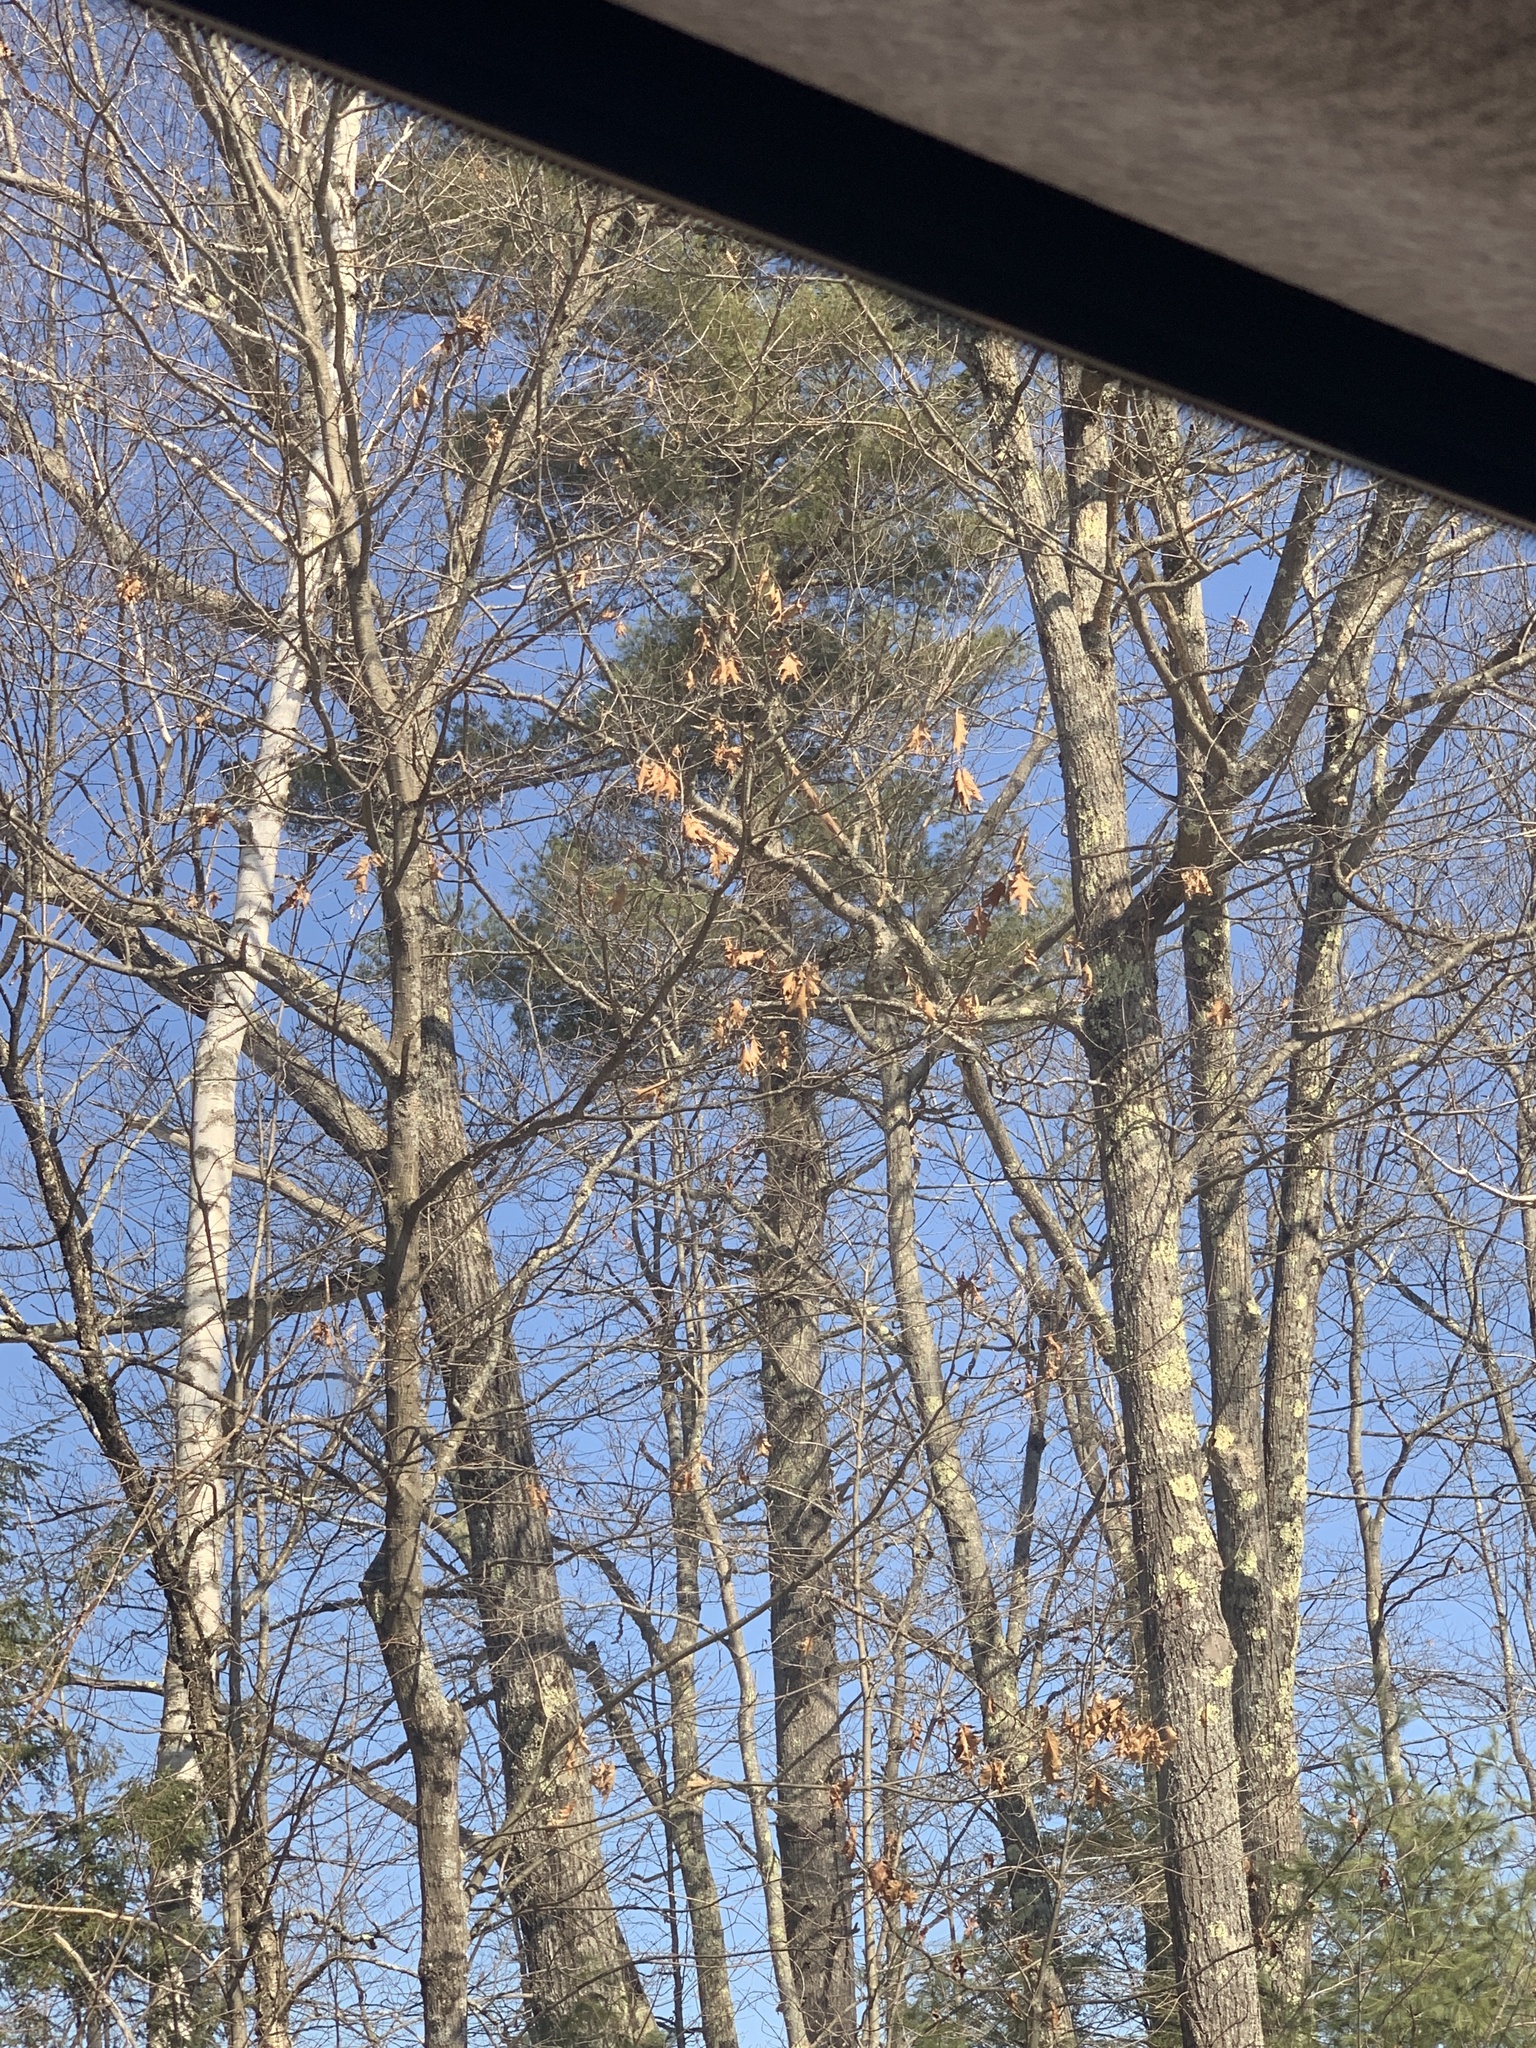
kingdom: Plantae
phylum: Tracheophyta
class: Pinopsida
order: Pinales
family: Pinaceae
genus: Pinus
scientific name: Pinus strobus
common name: Weymouth pine
